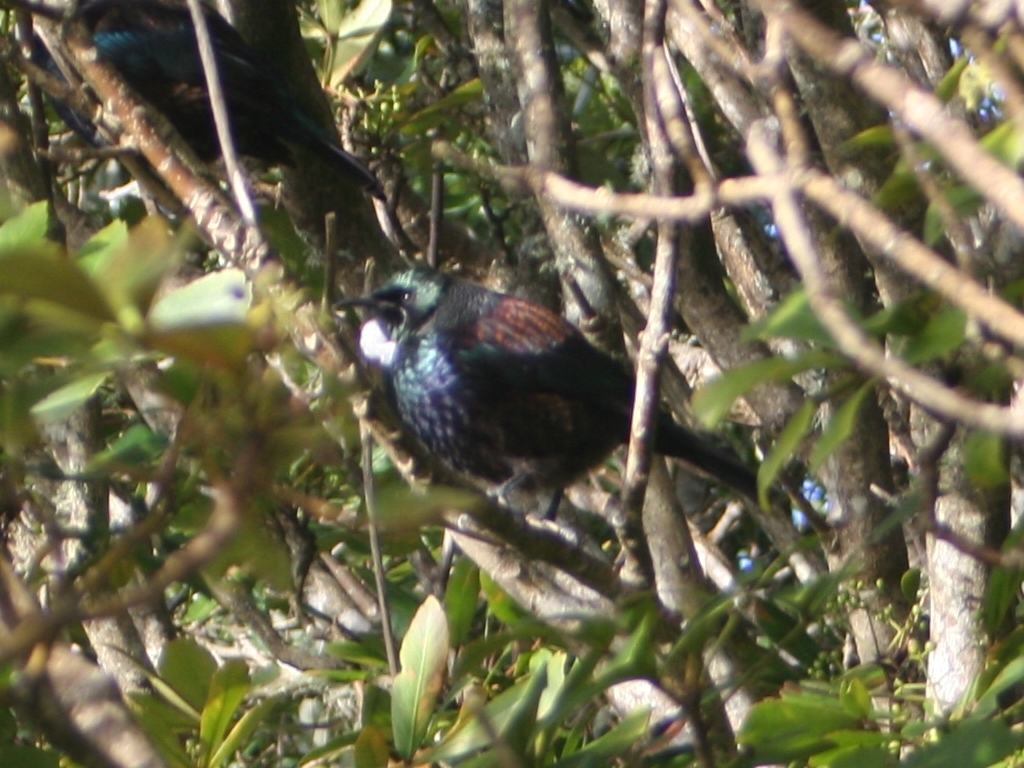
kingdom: Animalia
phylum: Chordata
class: Aves
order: Passeriformes
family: Meliphagidae
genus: Prosthemadera
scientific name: Prosthemadera novaeseelandiae
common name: Tui
